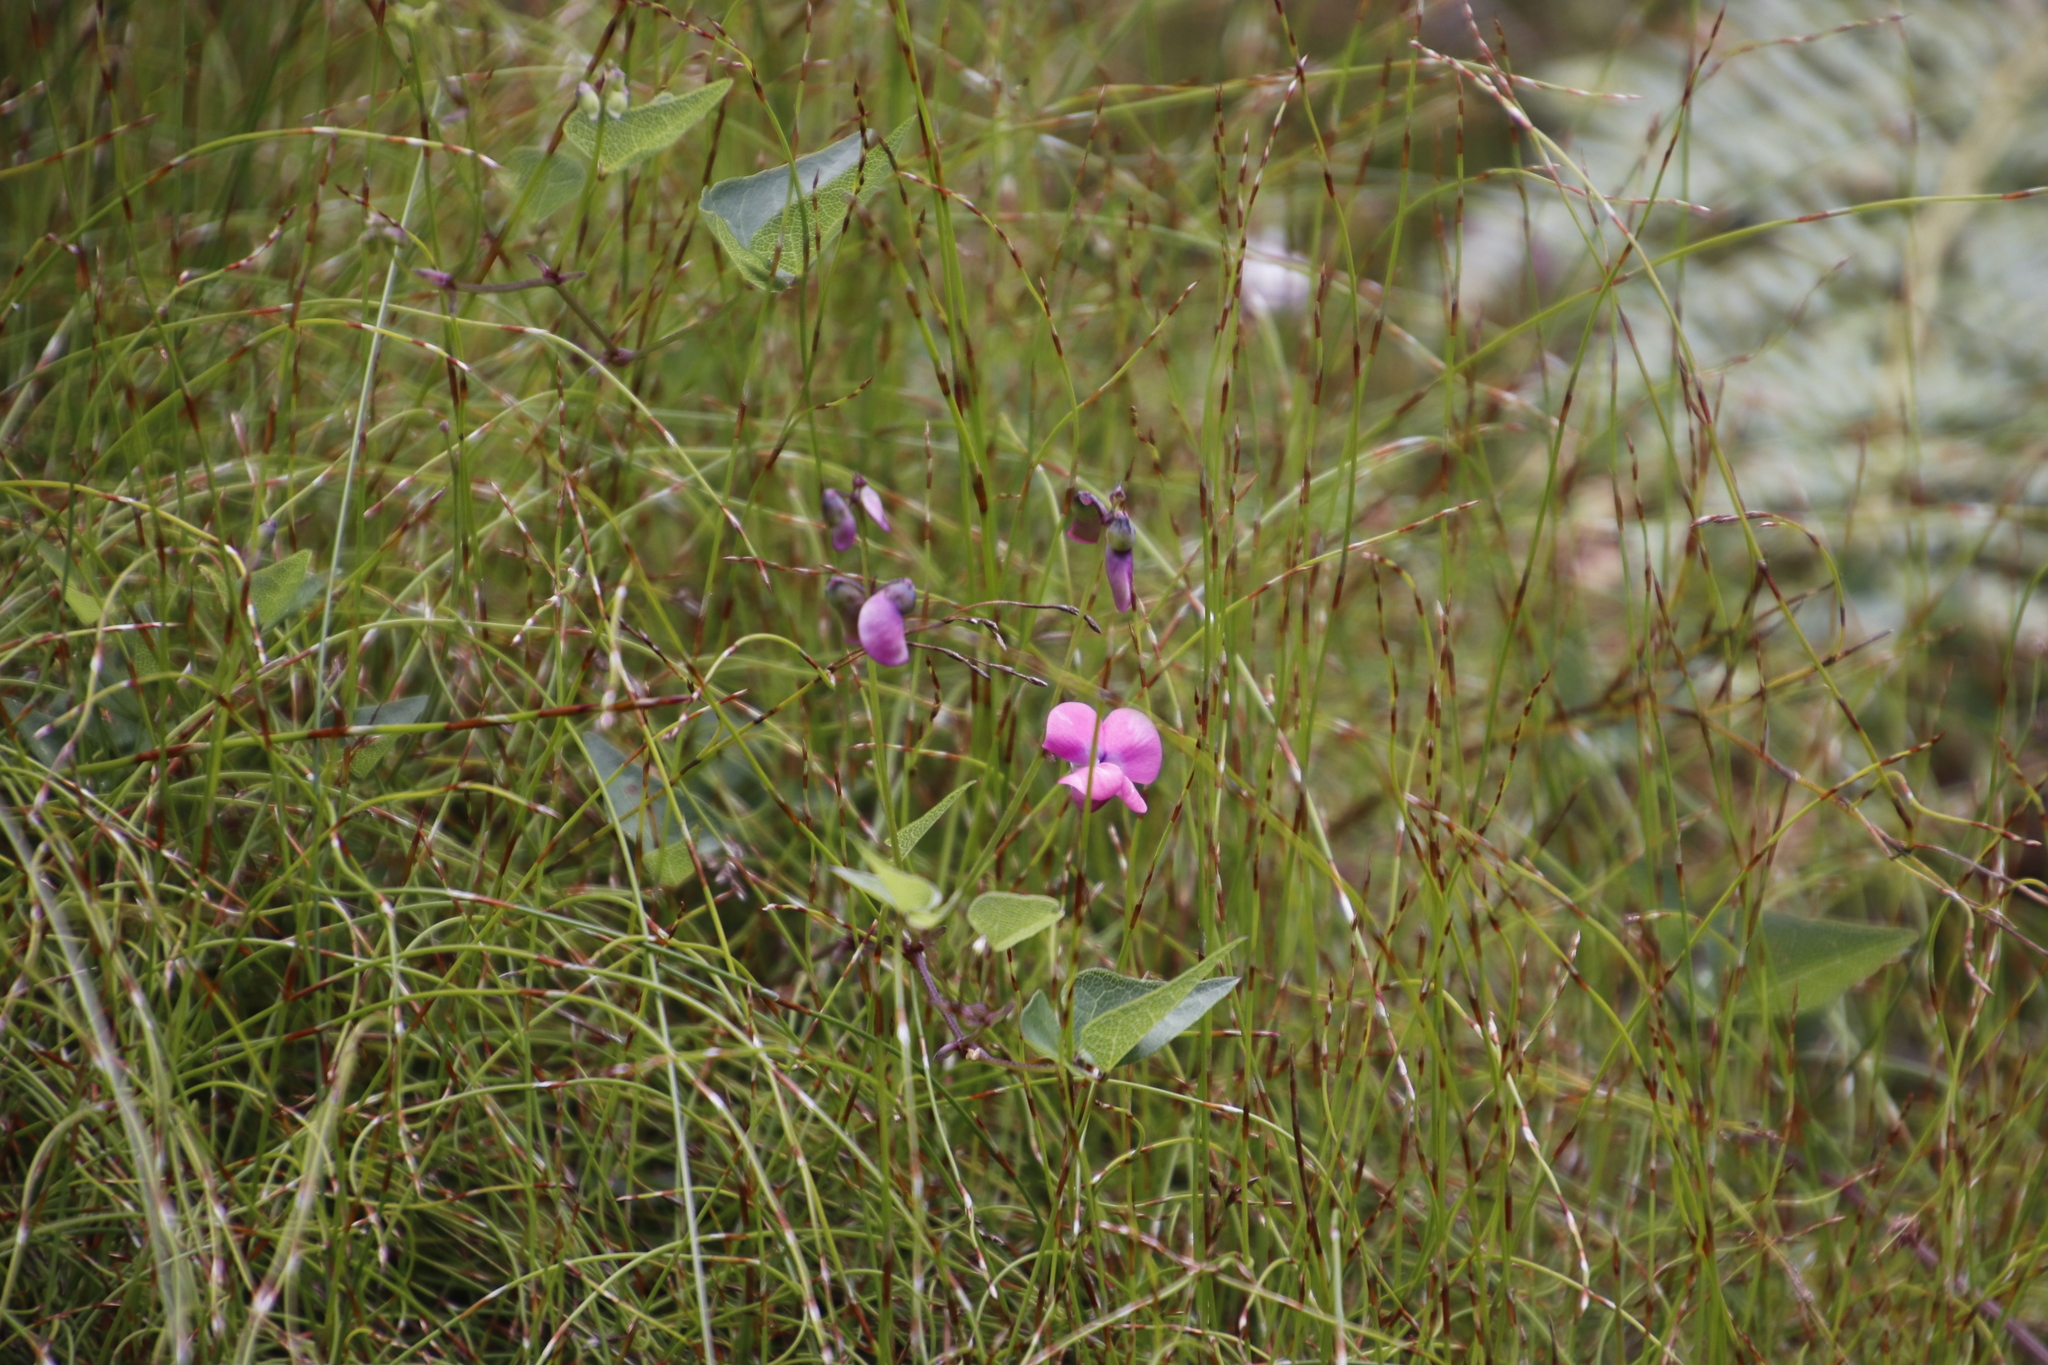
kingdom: Plantae
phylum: Tracheophyta
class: Magnoliopsida
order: Fabales
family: Fabaceae
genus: Dipogon
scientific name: Dipogon lignosus
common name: Okie bean
